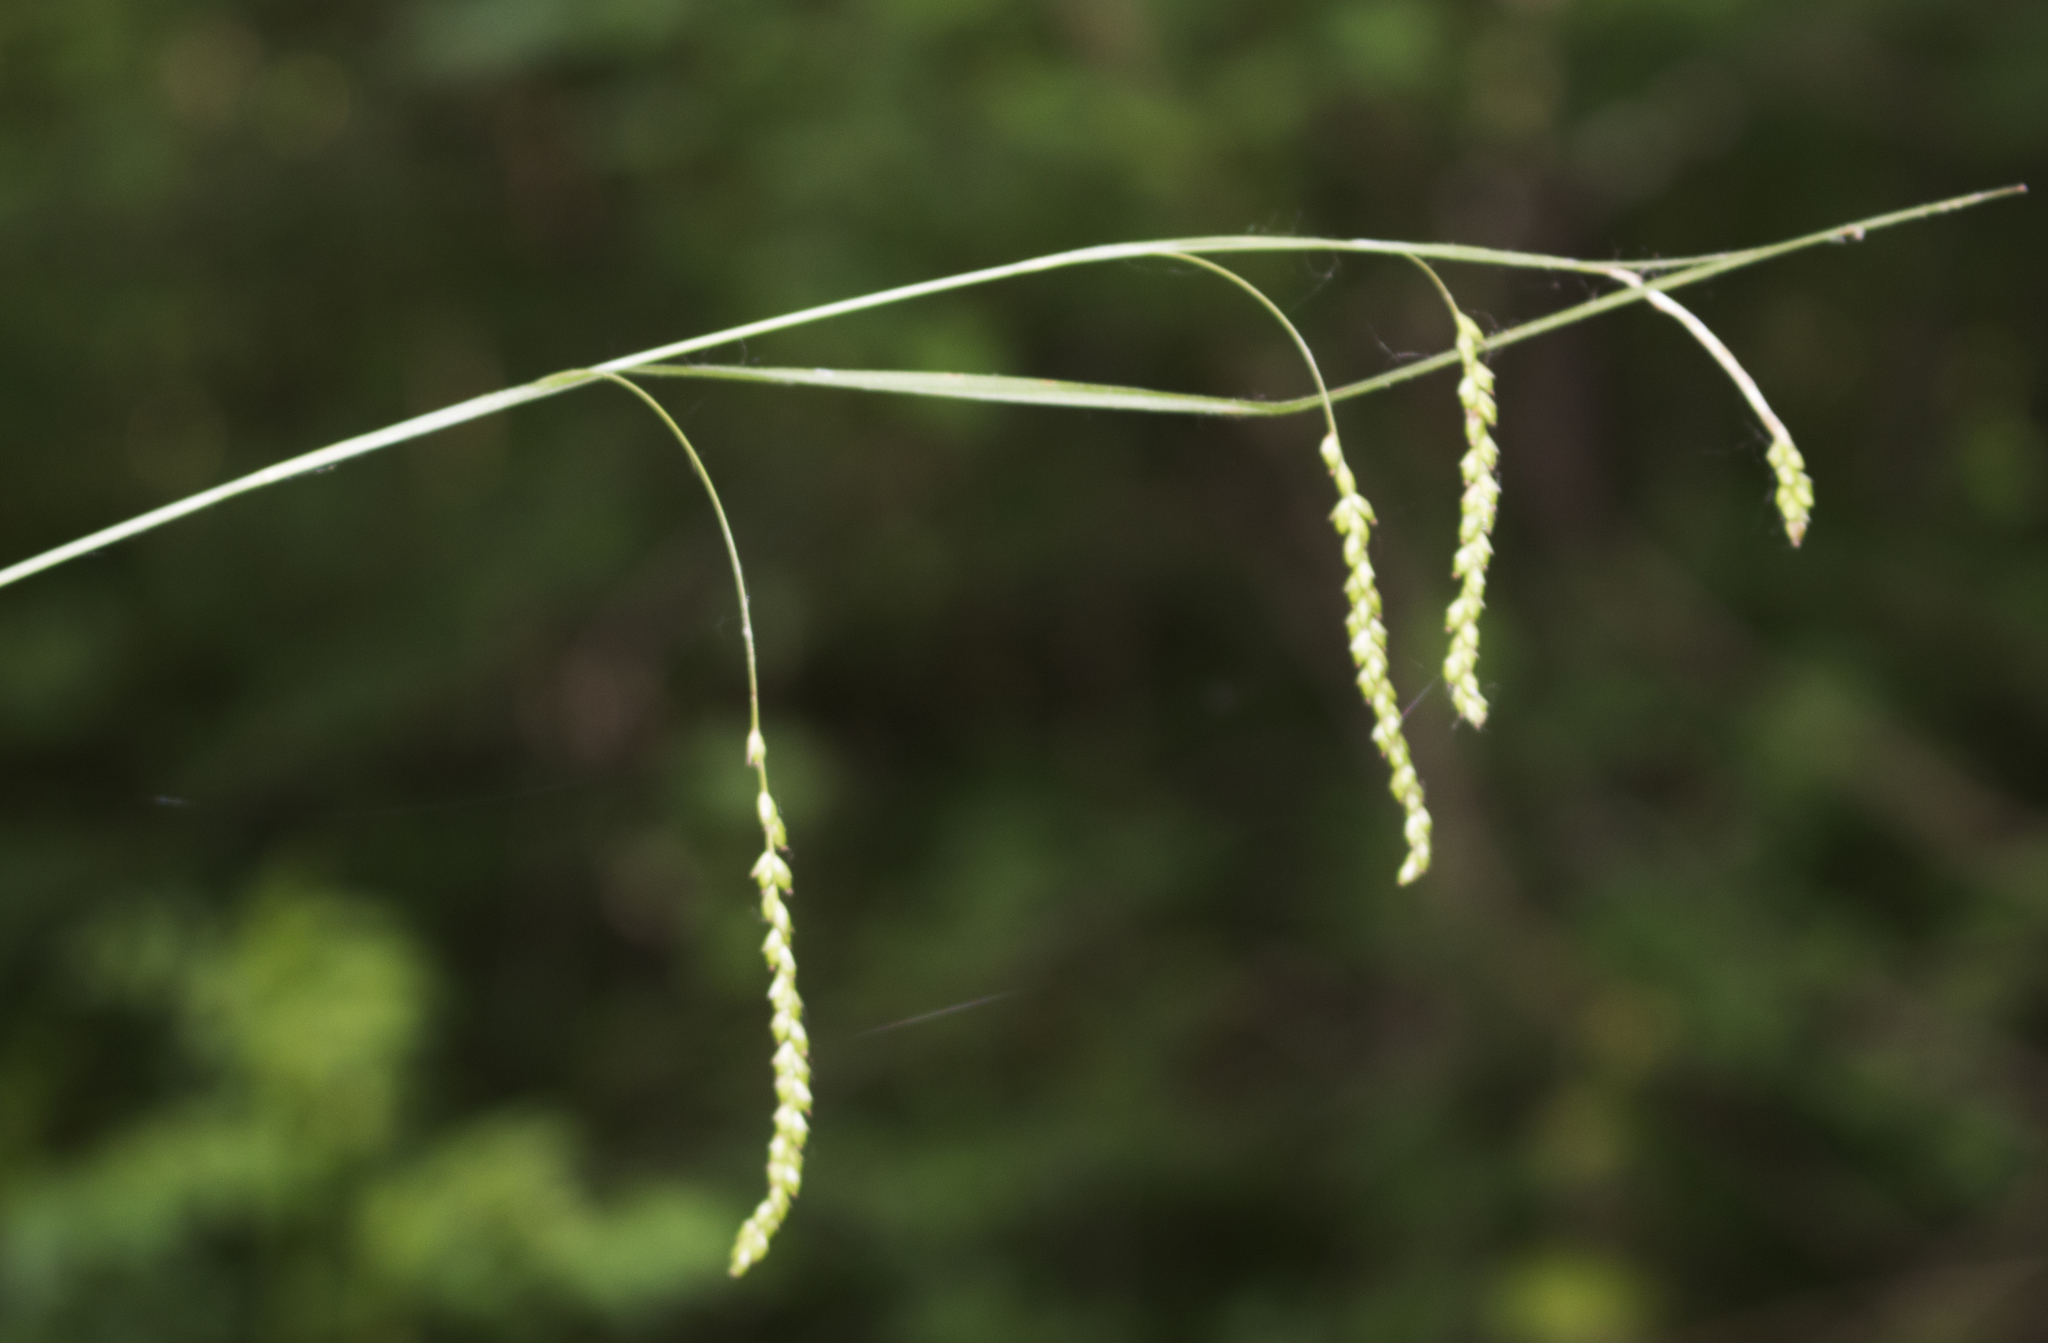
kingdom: Plantae
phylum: Tracheophyta
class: Liliopsida
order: Poales
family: Cyperaceae
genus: Carex
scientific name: Carex gracillima
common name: Graceful sedge
